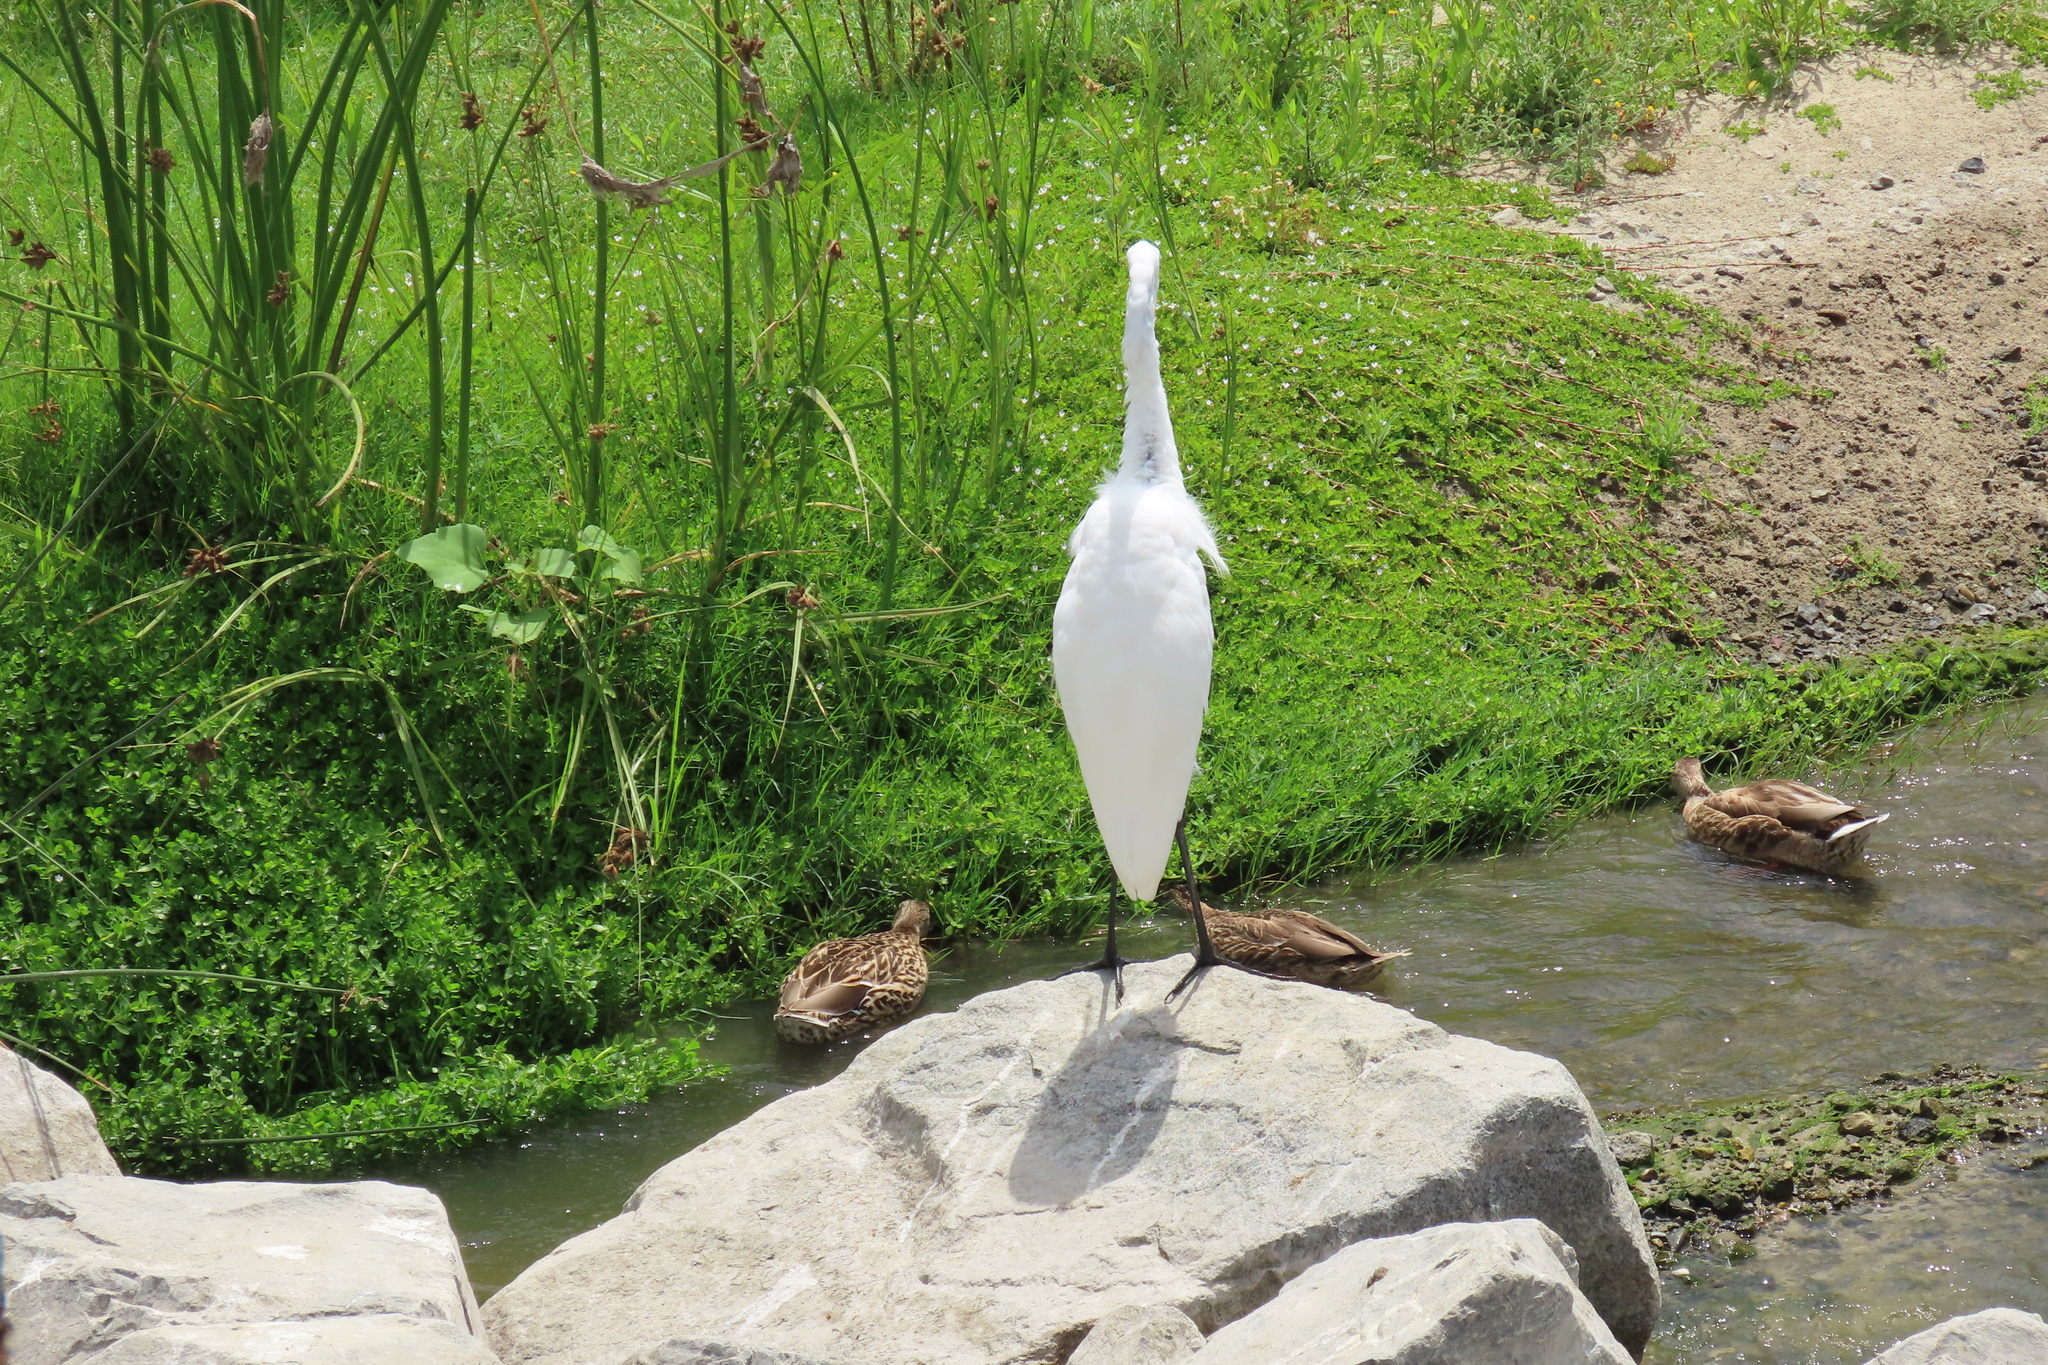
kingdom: Animalia
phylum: Chordata
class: Aves
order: Pelecaniformes
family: Ardeidae
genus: Ardea
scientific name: Ardea alba
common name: Great egret
